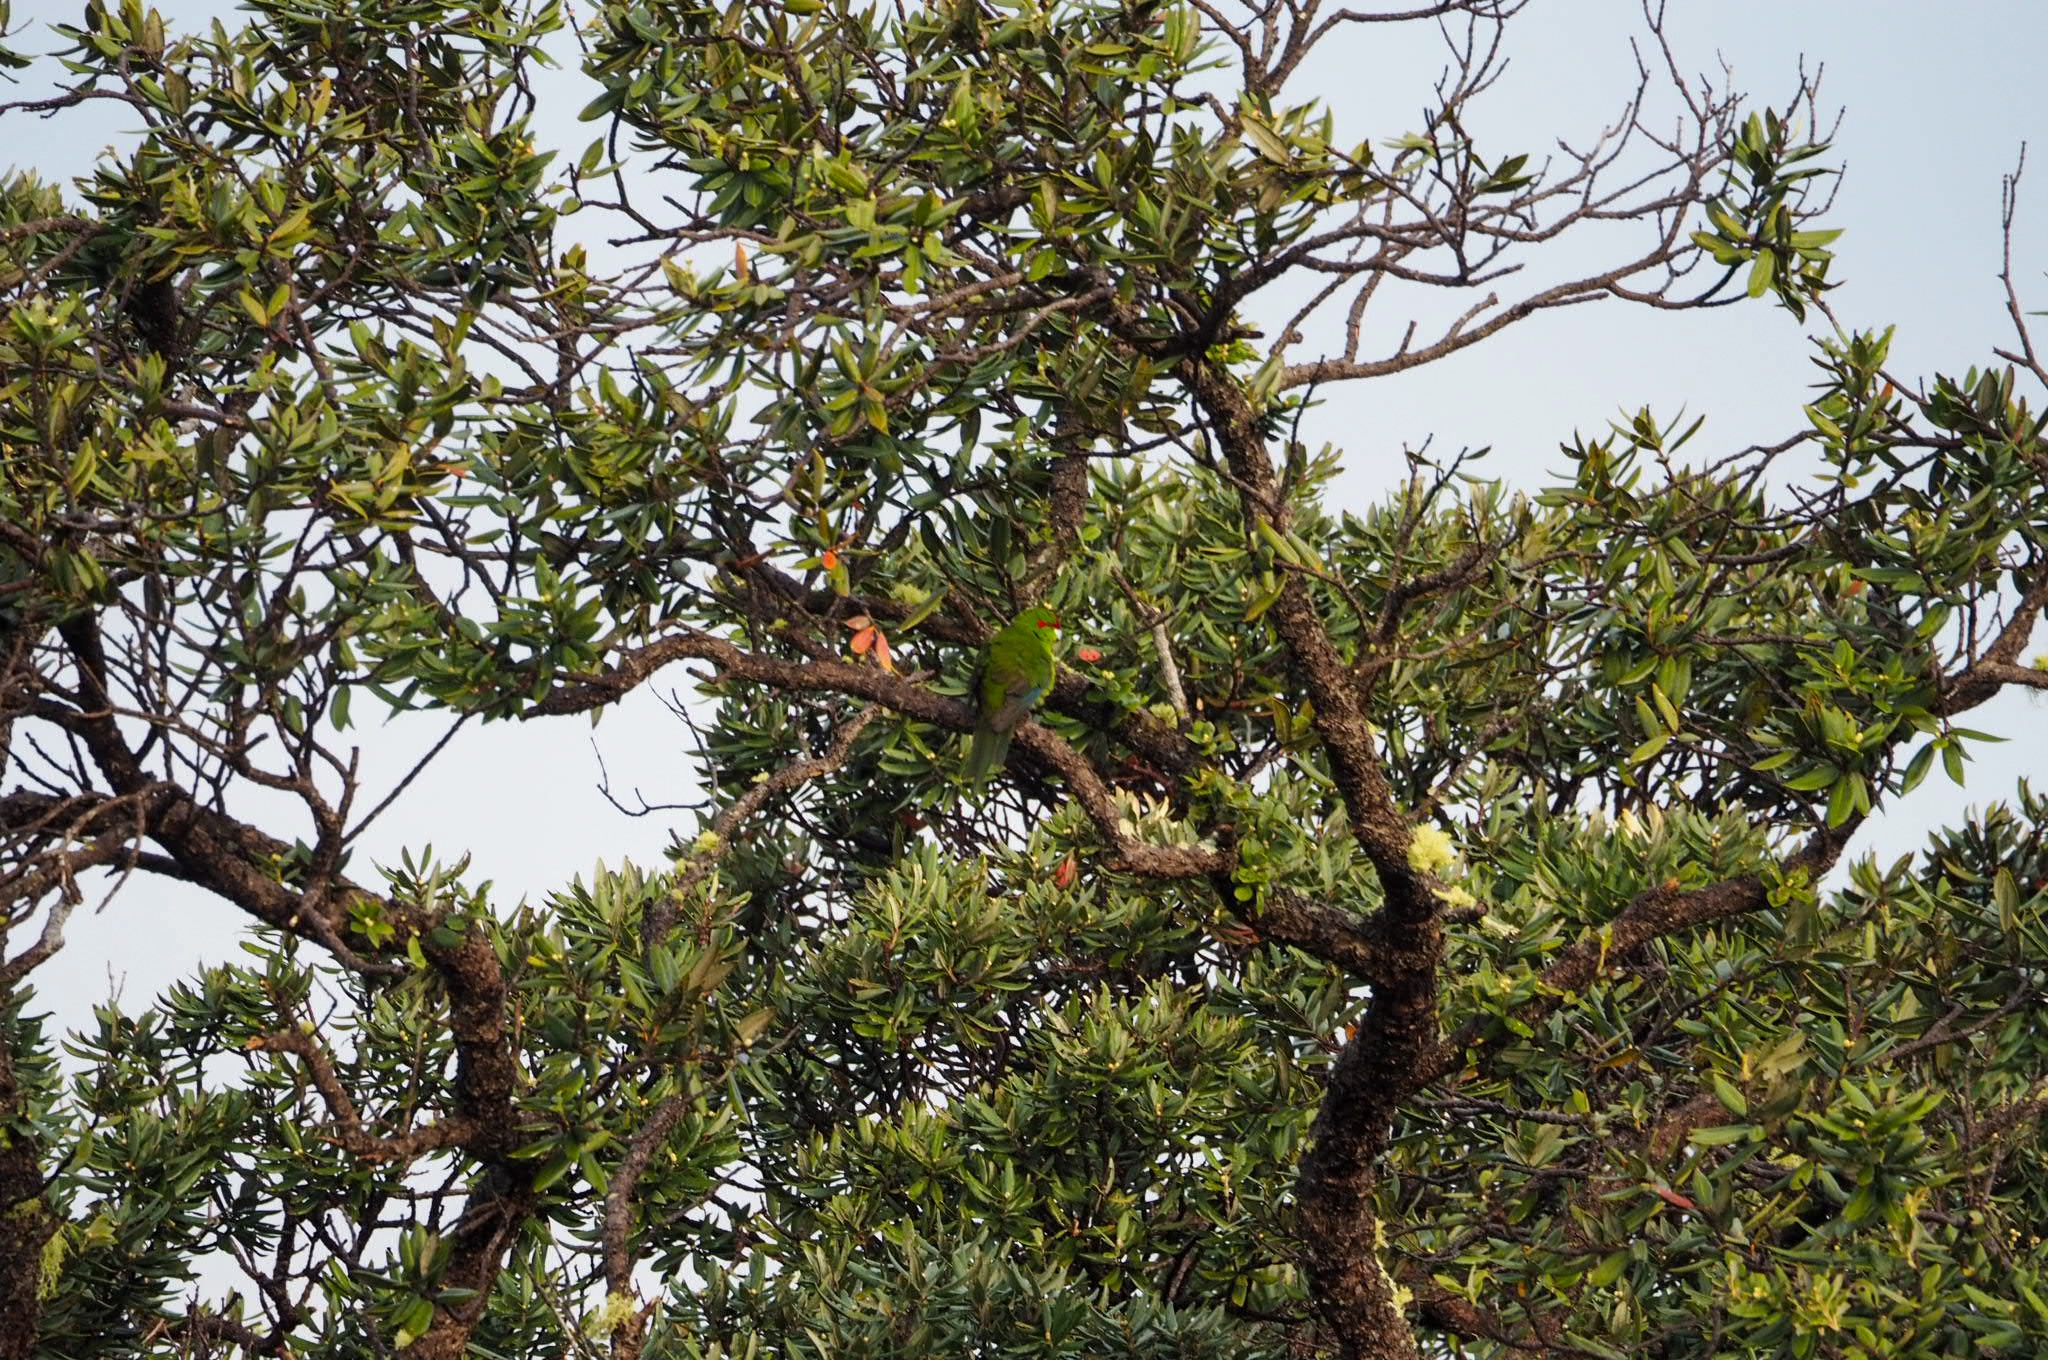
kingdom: Animalia
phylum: Chordata
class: Aves
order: Psittaciformes
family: Psittacidae
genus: Cyanoramphus
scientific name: Cyanoramphus novaezelandiae
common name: Red-fronted parakeet
